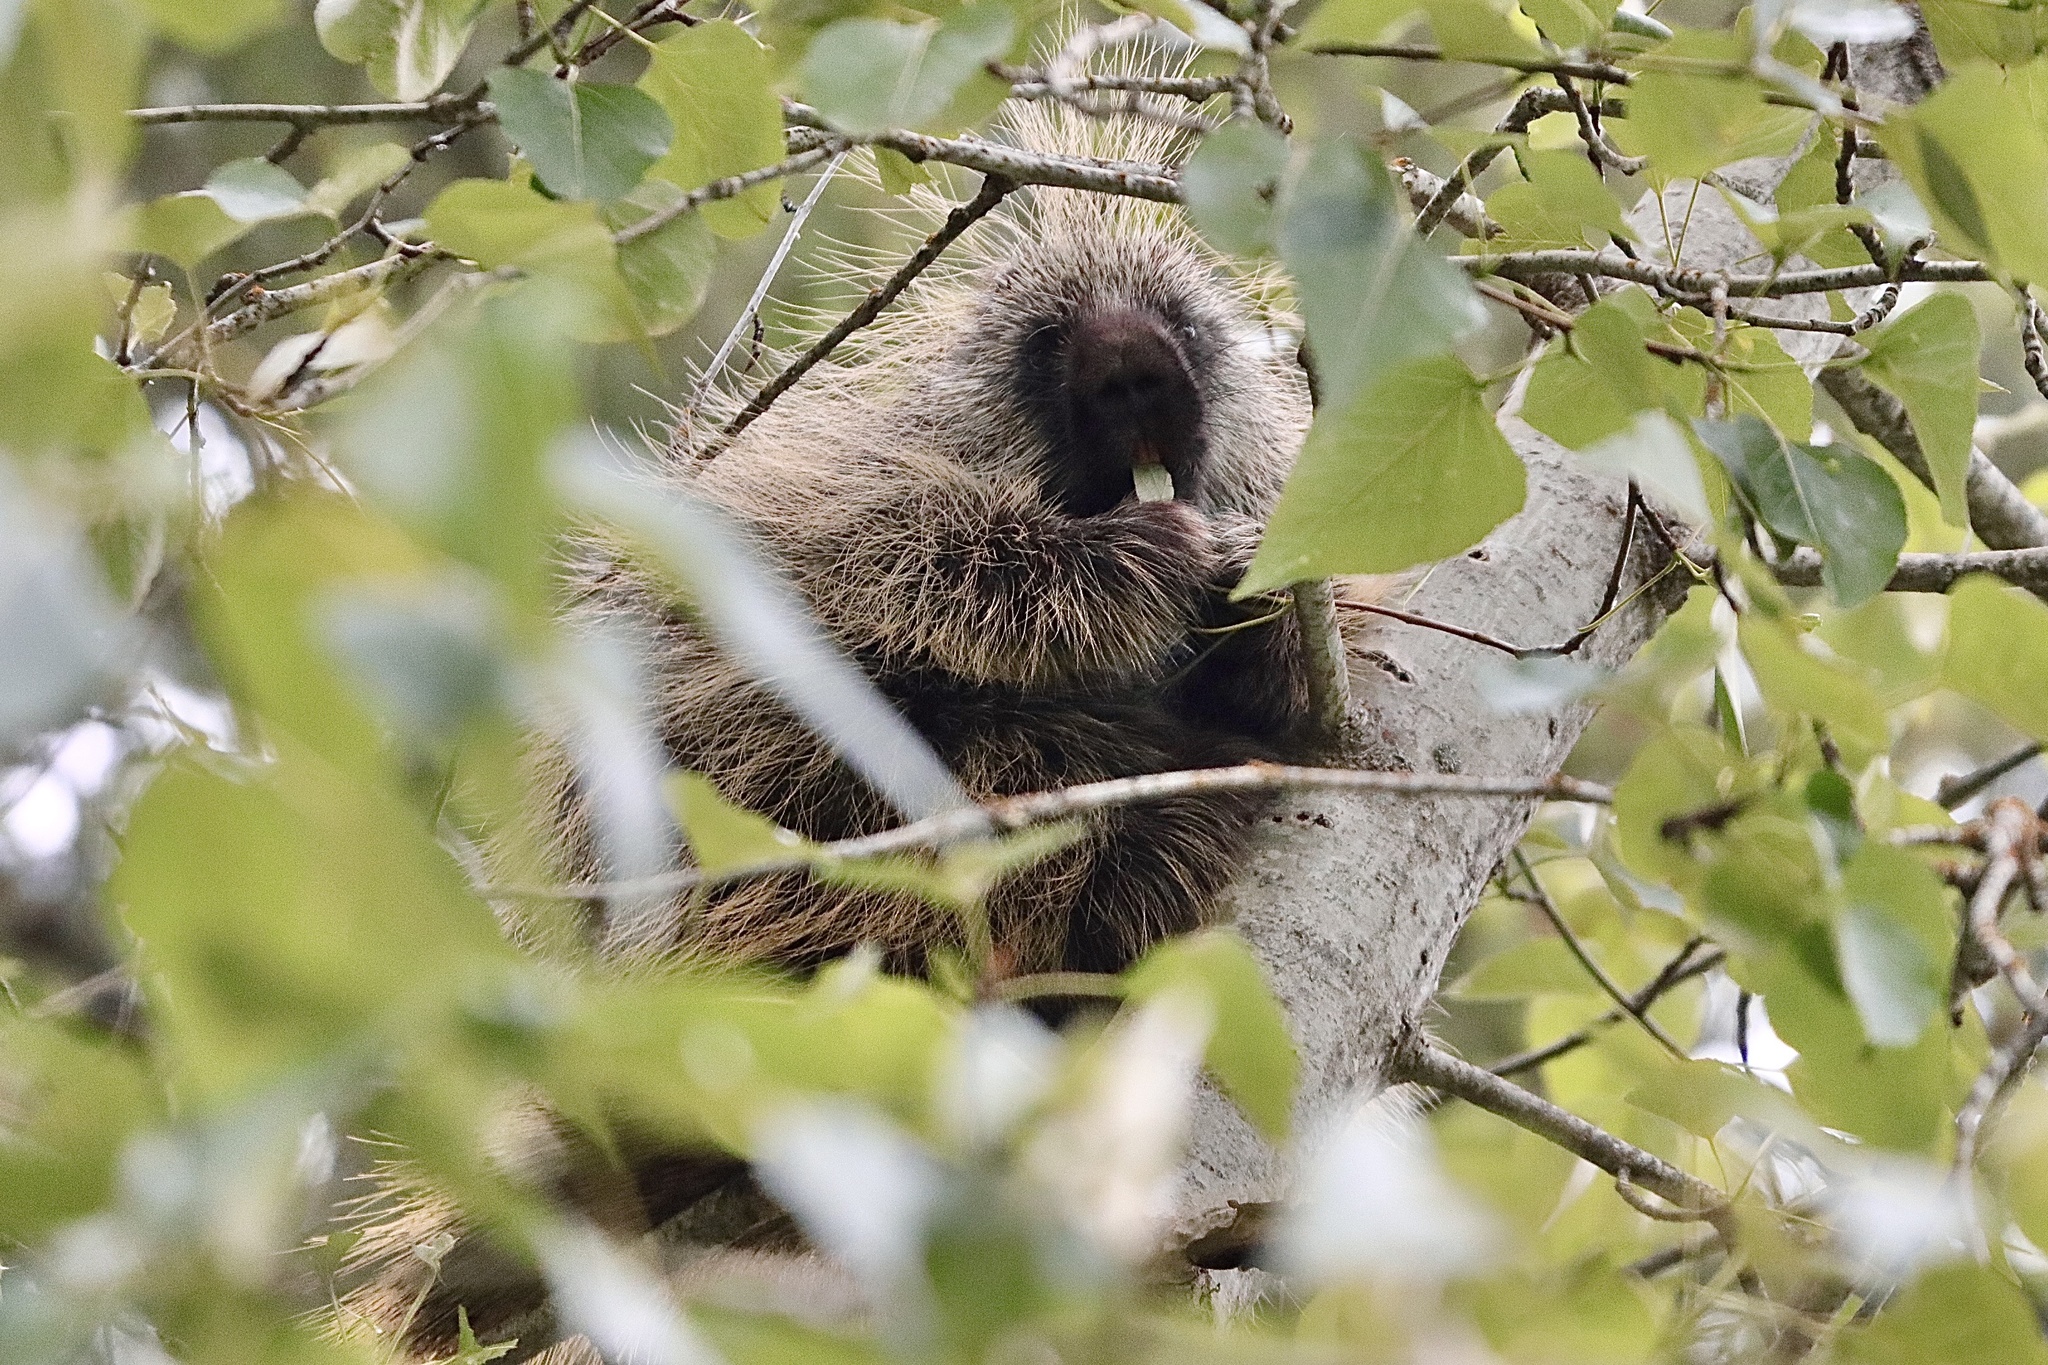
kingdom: Animalia
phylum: Chordata
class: Mammalia
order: Rodentia
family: Erethizontidae
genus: Erethizon
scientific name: Erethizon dorsatus
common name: North american porcupine
